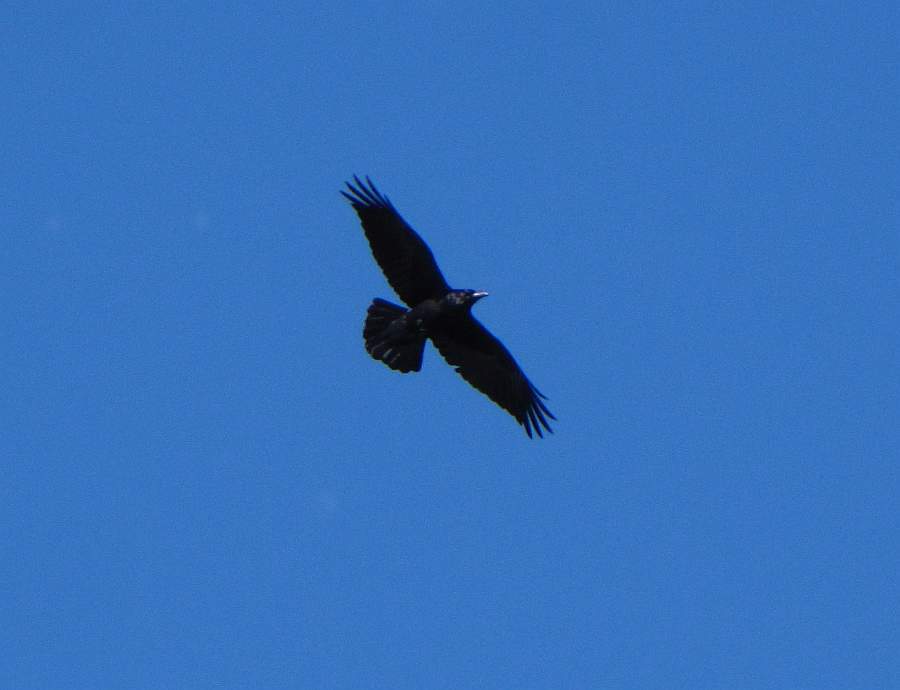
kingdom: Animalia
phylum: Chordata
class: Aves
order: Passeriformes
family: Corvidae
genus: Corvus
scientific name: Corvus corax
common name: Common raven
